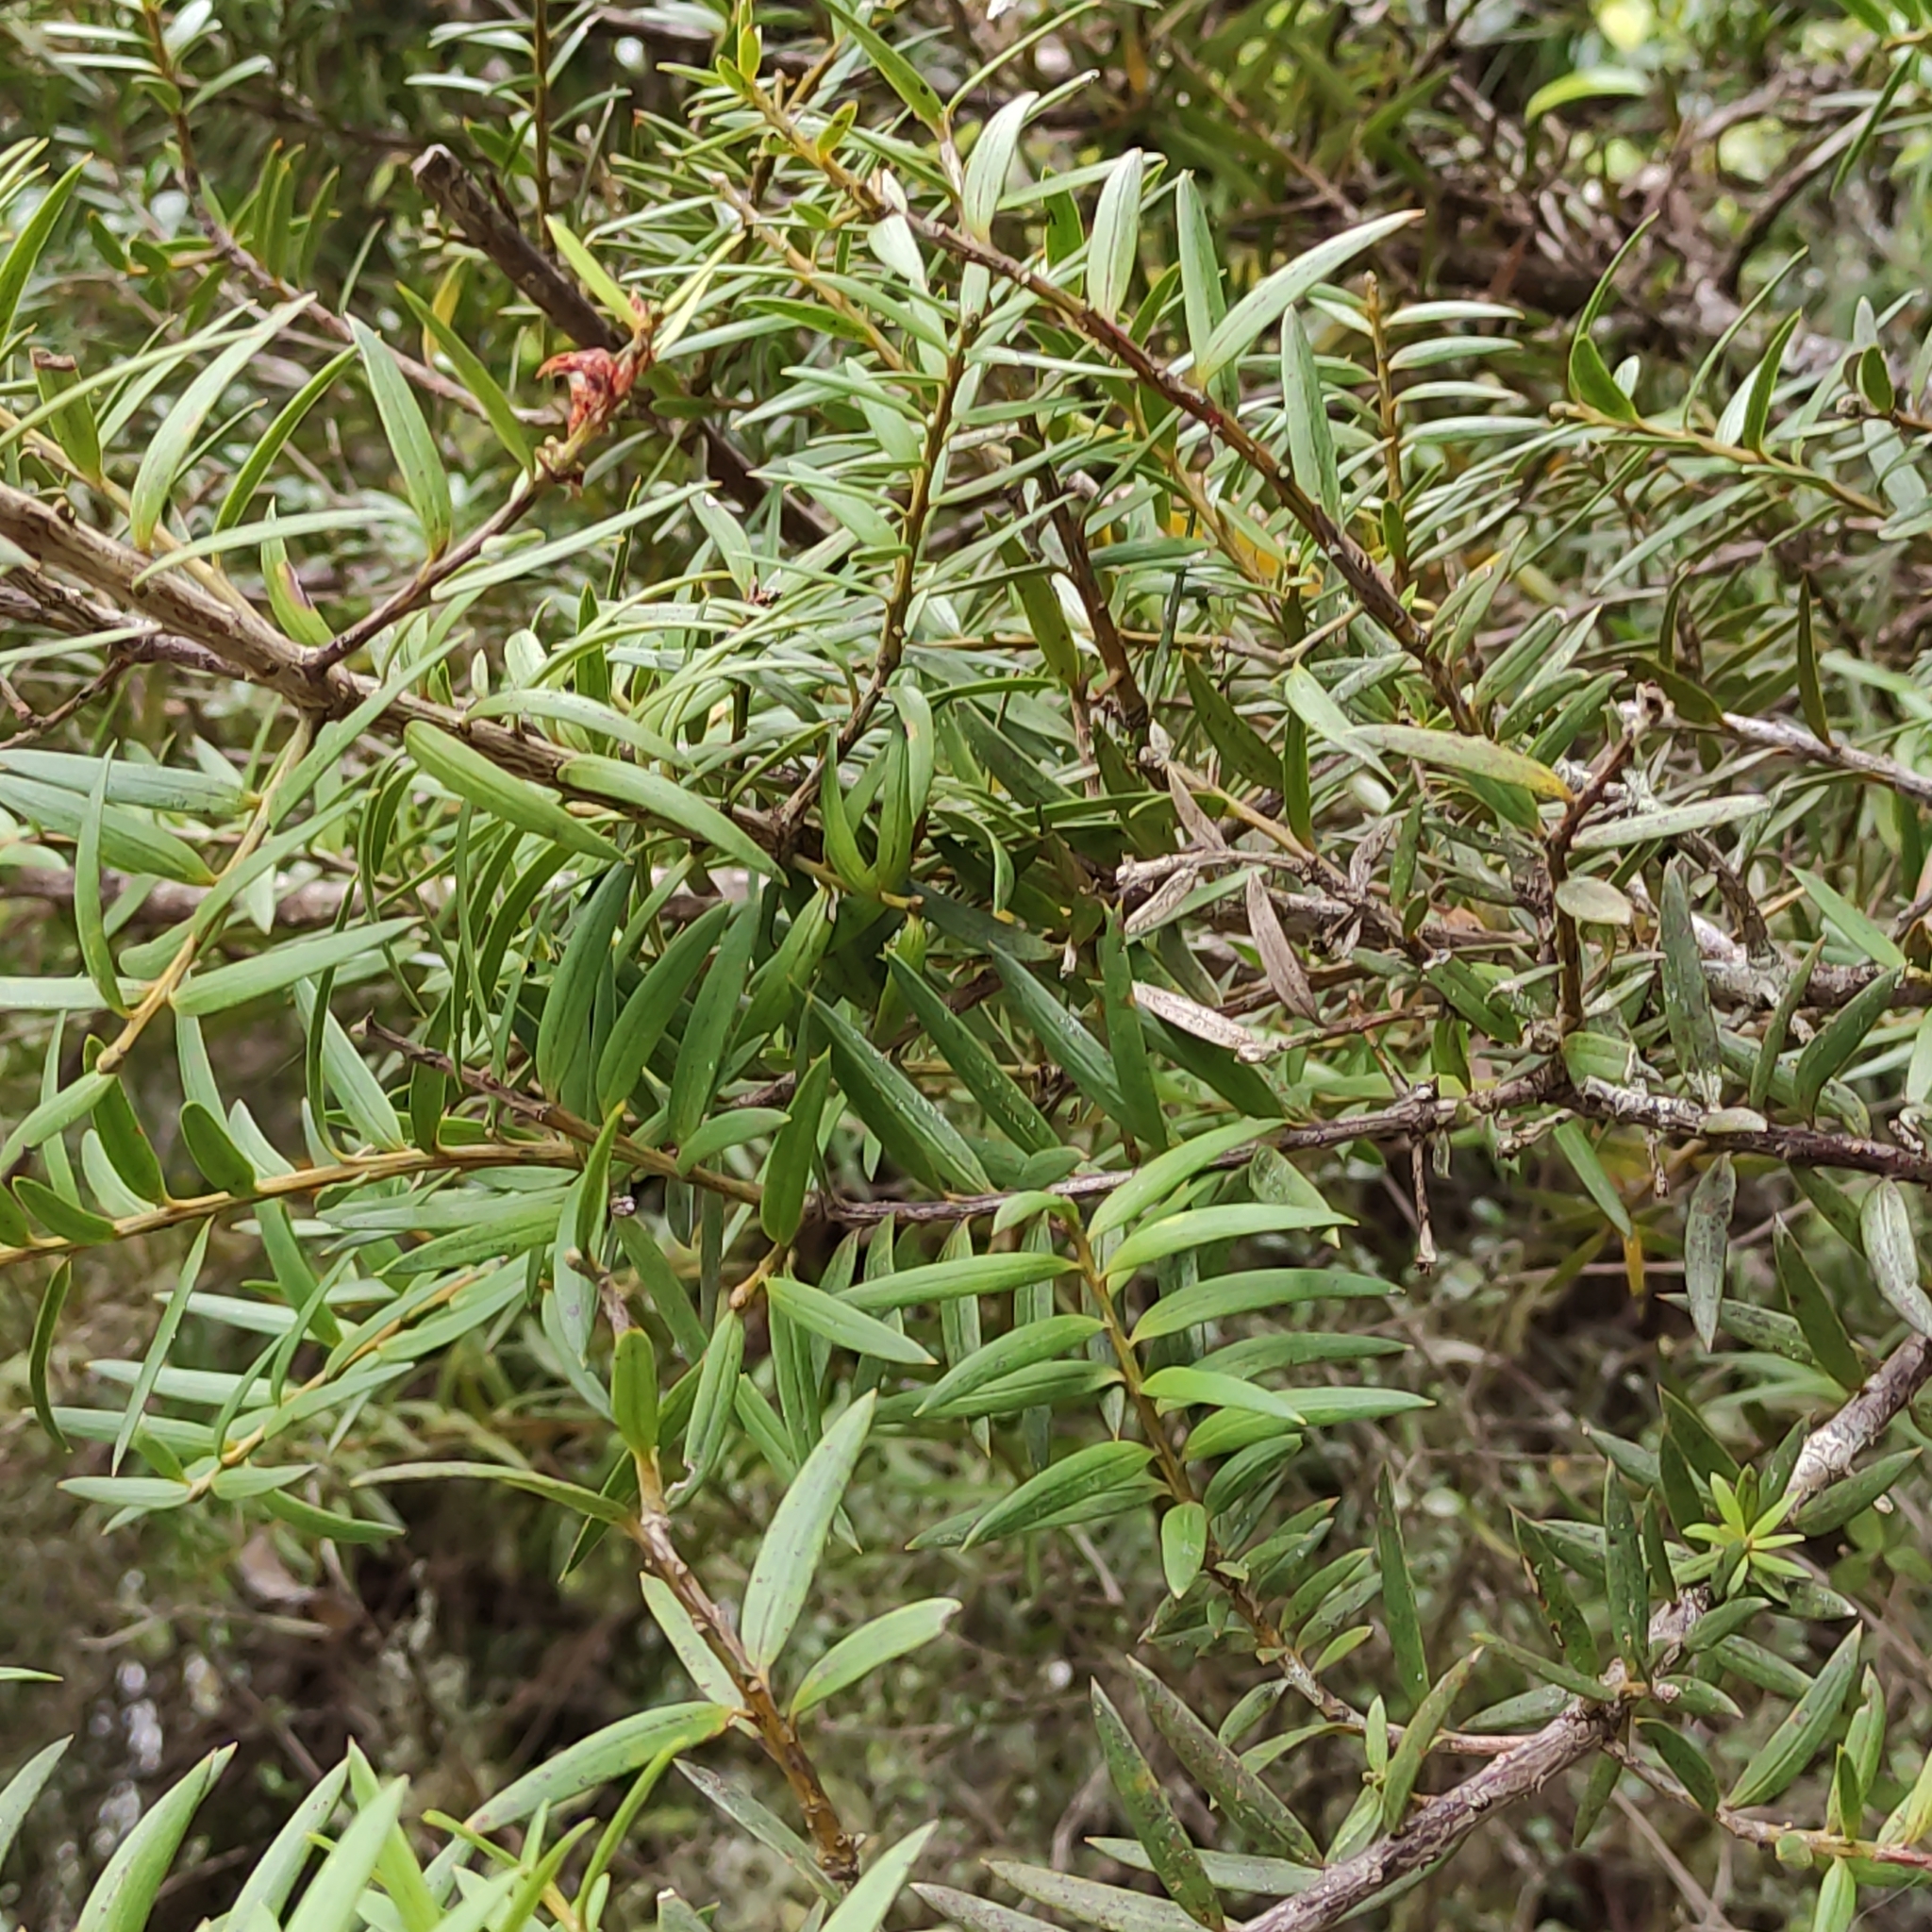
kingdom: Plantae
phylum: Tracheophyta
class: Pinopsida
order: Pinales
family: Podocarpaceae
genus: Podocarpus
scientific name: Podocarpus laetus
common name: Hall's totara
